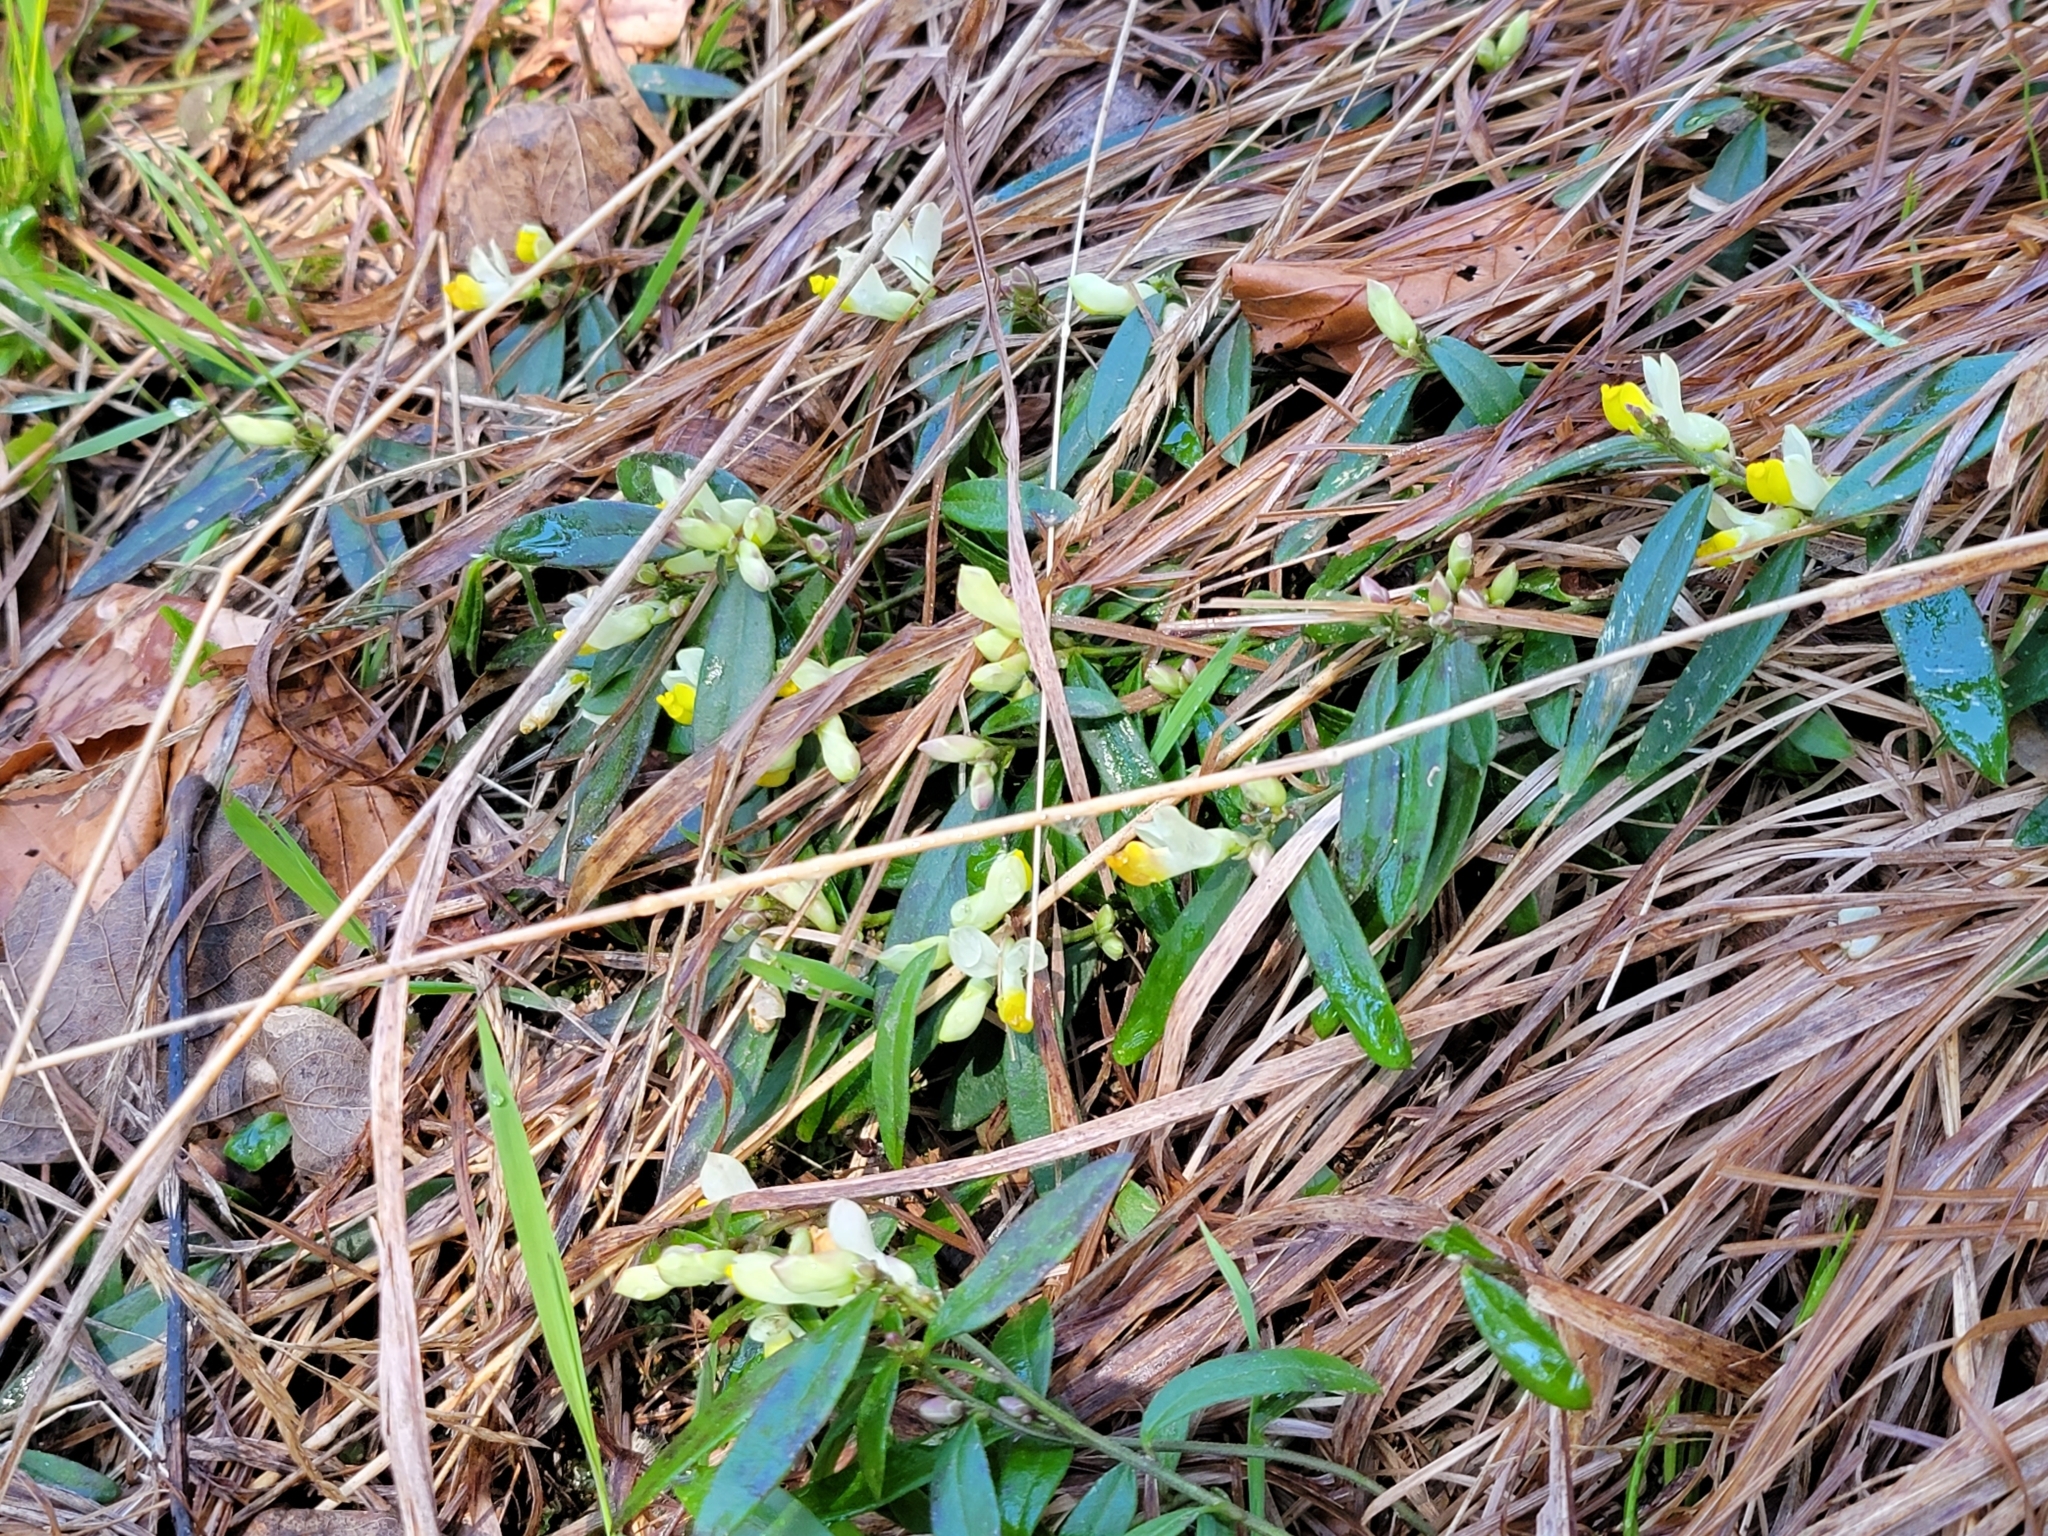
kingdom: Plantae
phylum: Tracheophyta
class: Magnoliopsida
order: Fabales
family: Polygalaceae
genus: Polygaloides
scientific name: Polygaloides chamaebuxus
